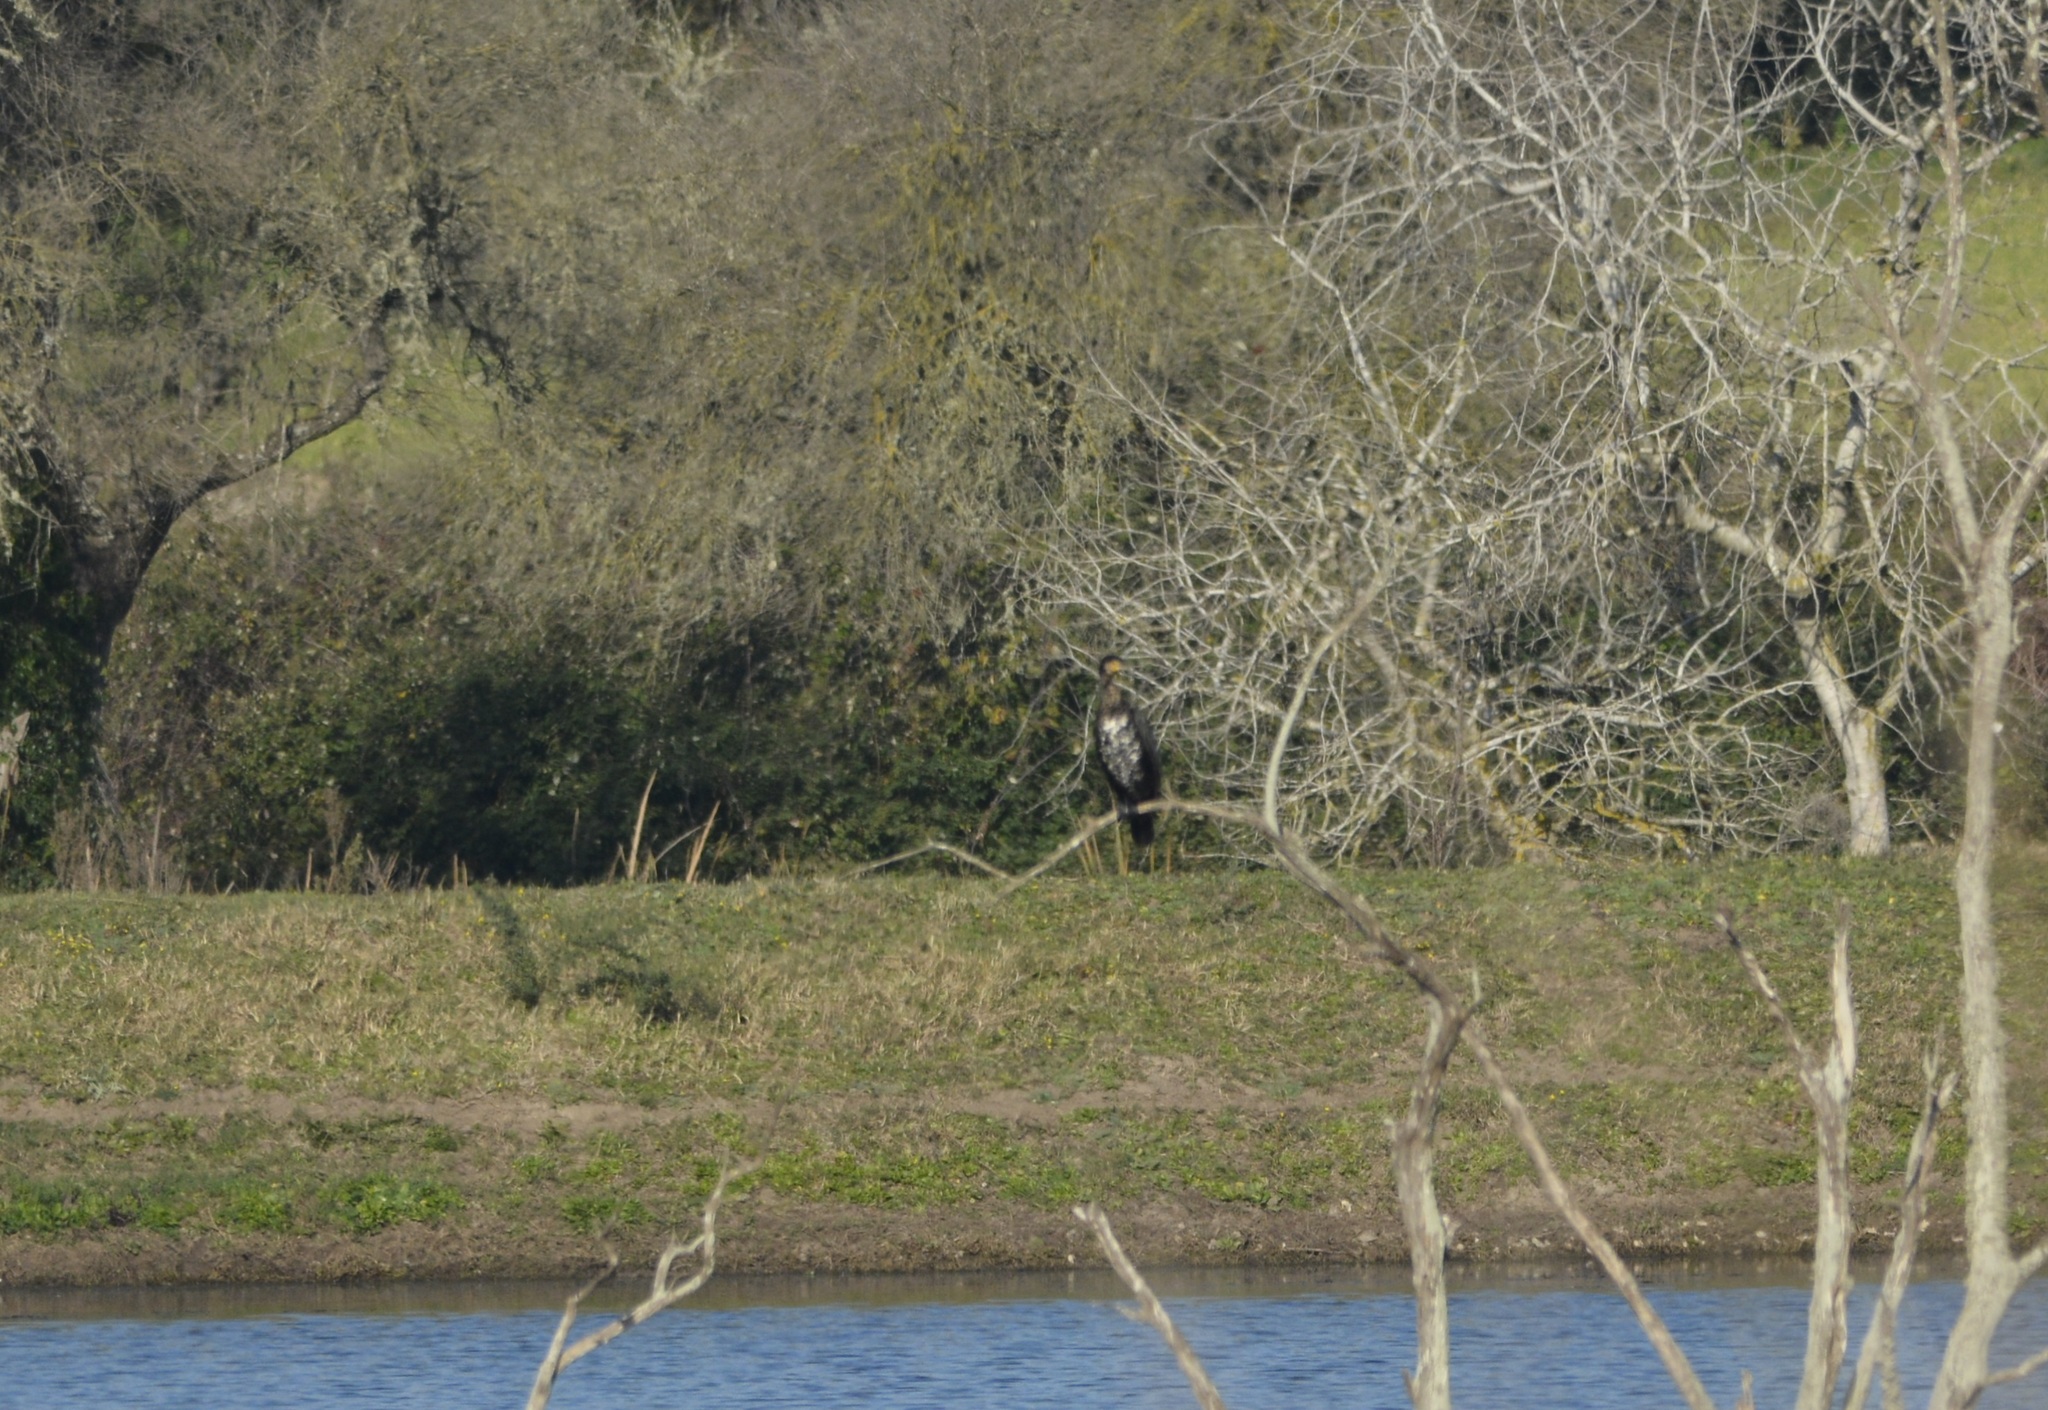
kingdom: Animalia
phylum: Chordata
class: Aves
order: Suliformes
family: Phalacrocoracidae
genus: Phalacrocorax
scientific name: Phalacrocorax carbo
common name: Great cormorant
